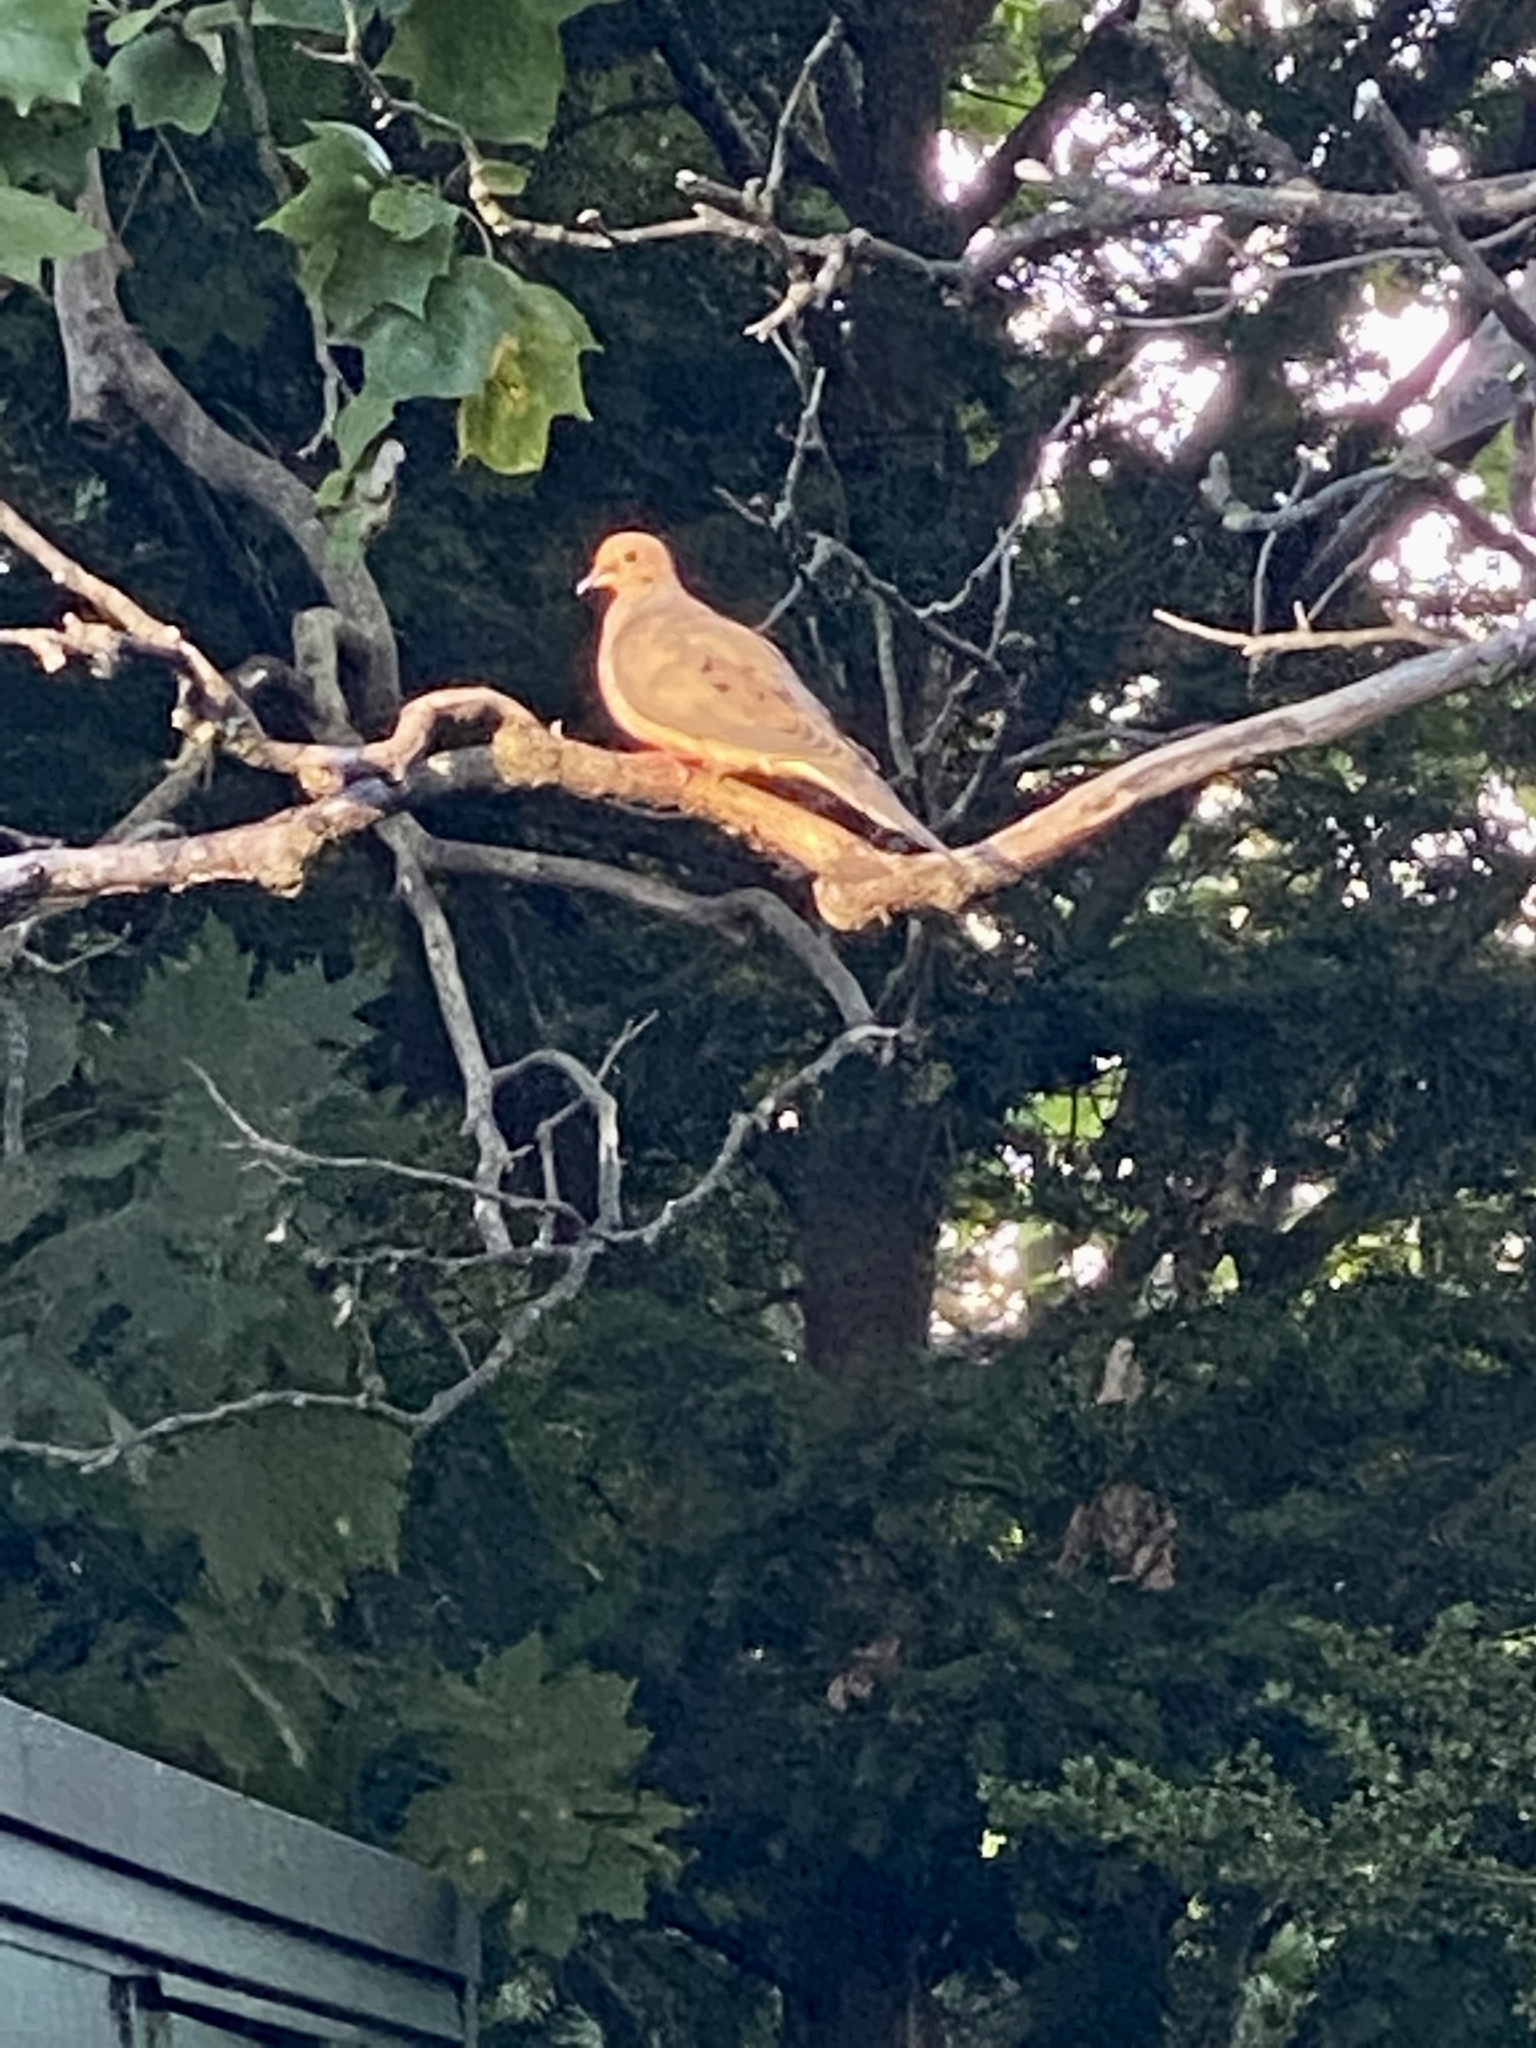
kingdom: Animalia
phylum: Chordata
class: Aves
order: Columbiformes
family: Columbidae
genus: Zenaida
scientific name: Zenaida macroura
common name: Mourning dove
